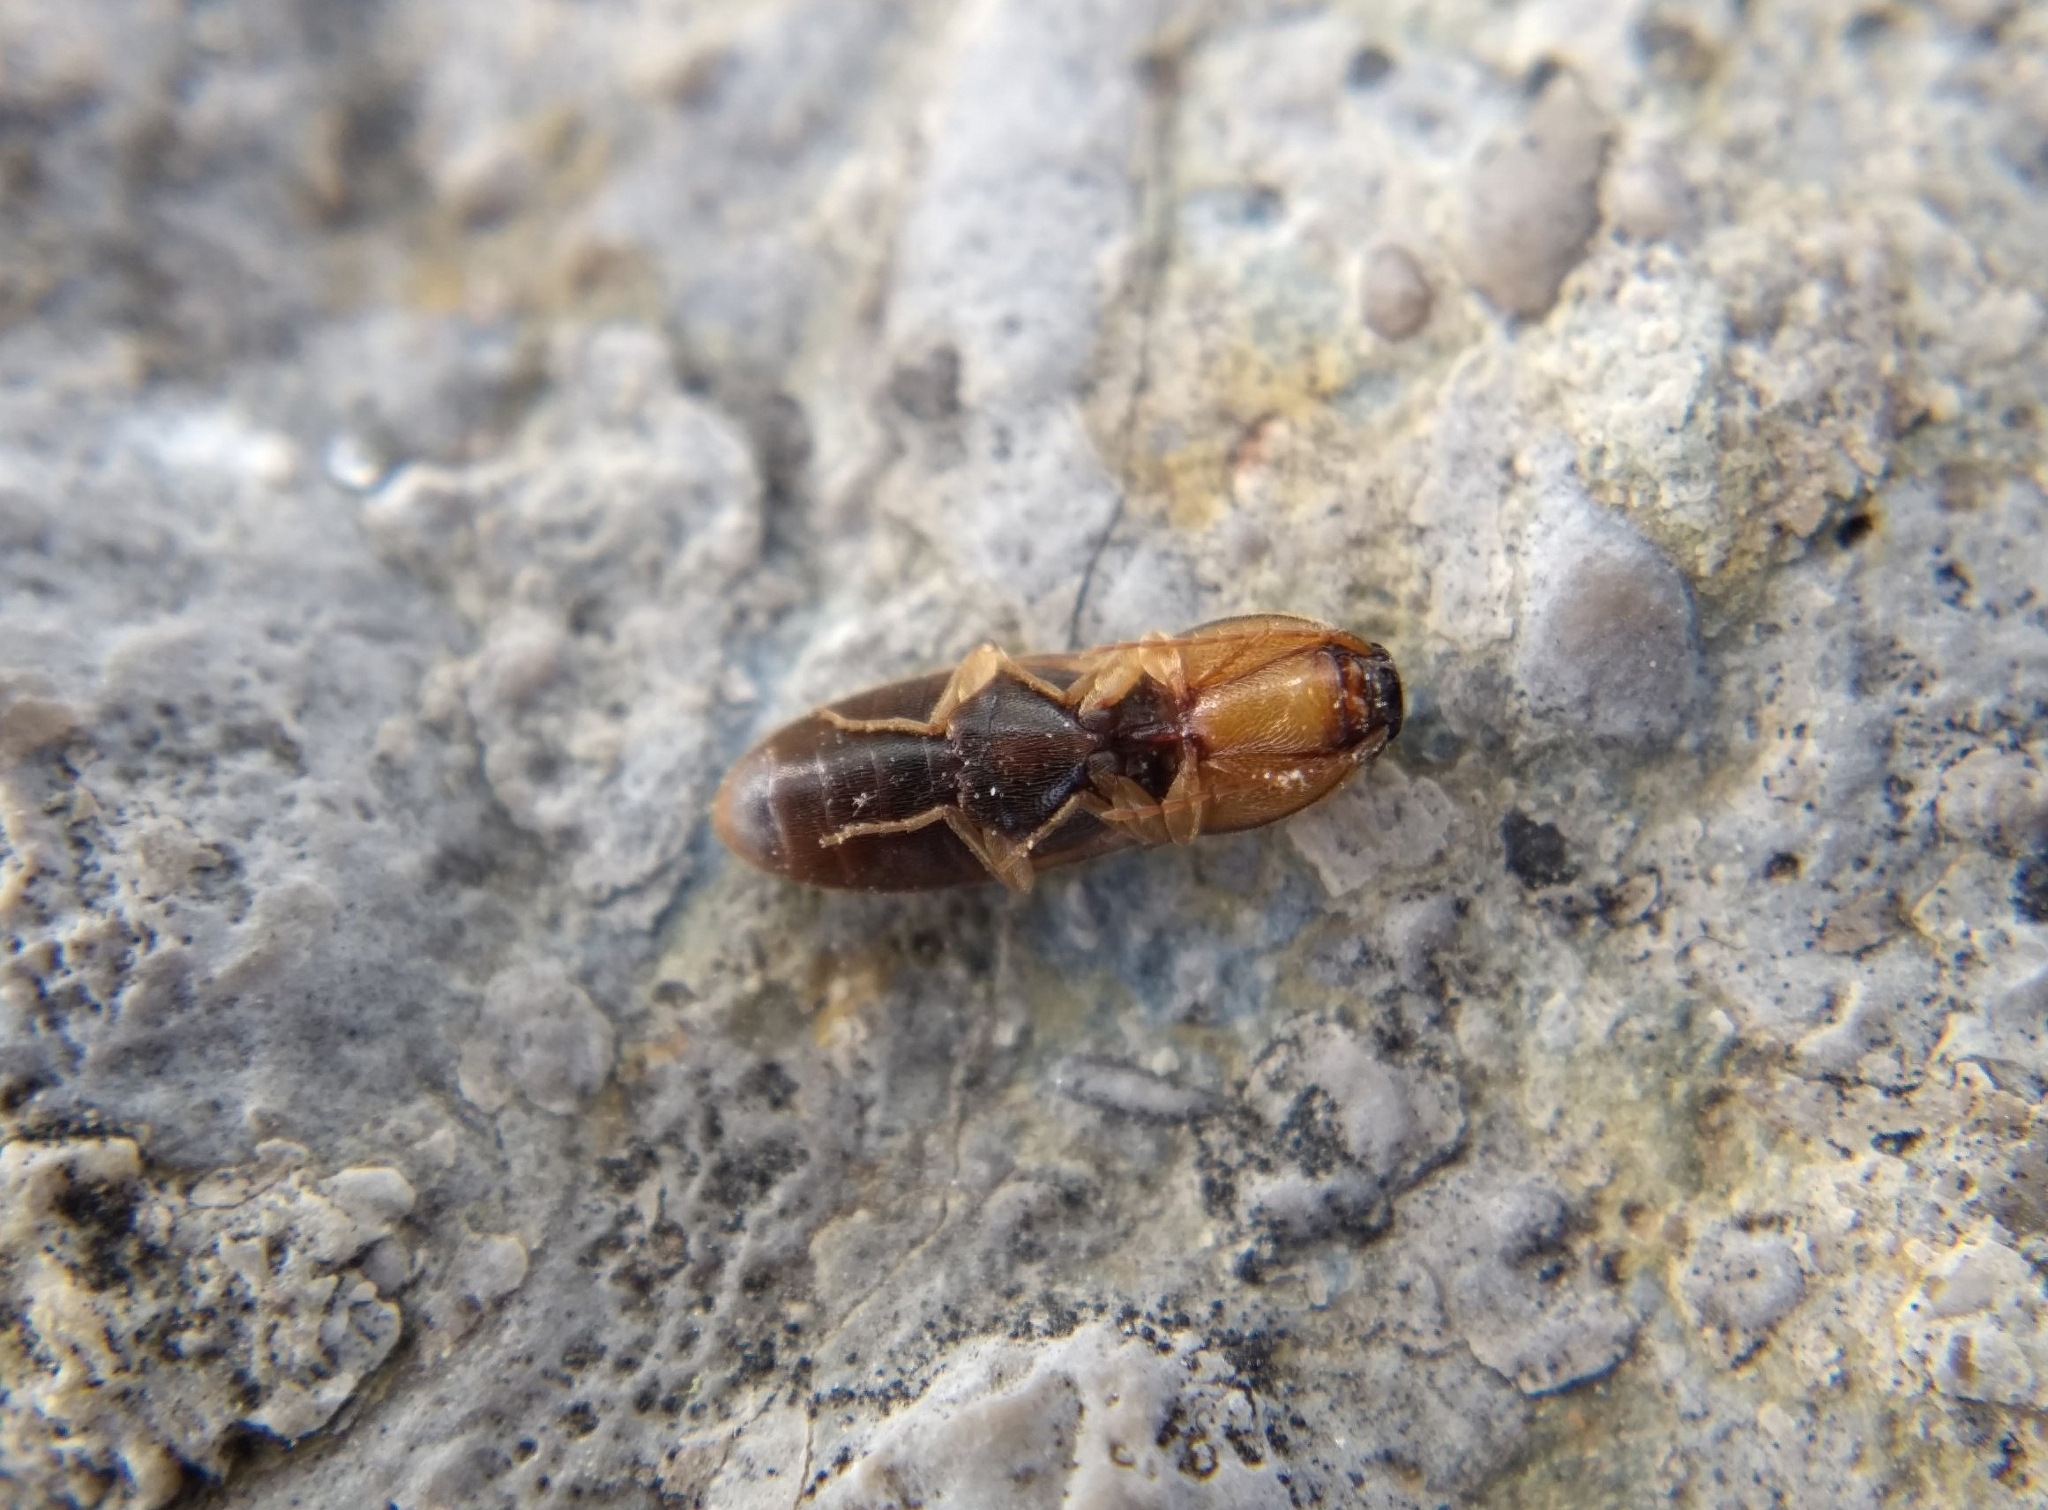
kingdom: Animalia
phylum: Arthropoda
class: Insecta
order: Coleoptera
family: Elateridae
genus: Aeolus
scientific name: Aeolus mellillus
